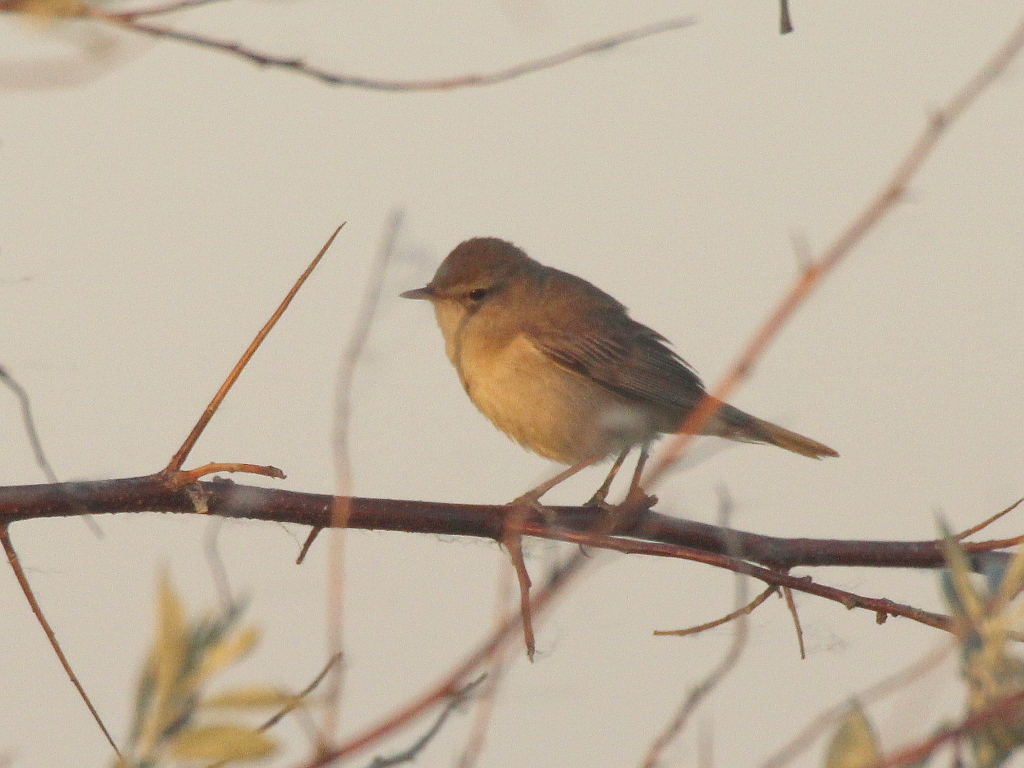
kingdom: Animalia
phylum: Chordata
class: Aves
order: Passeriformes
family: Acrocephalidae
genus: Iduna
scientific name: Iduna caligata
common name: Booted warbler
